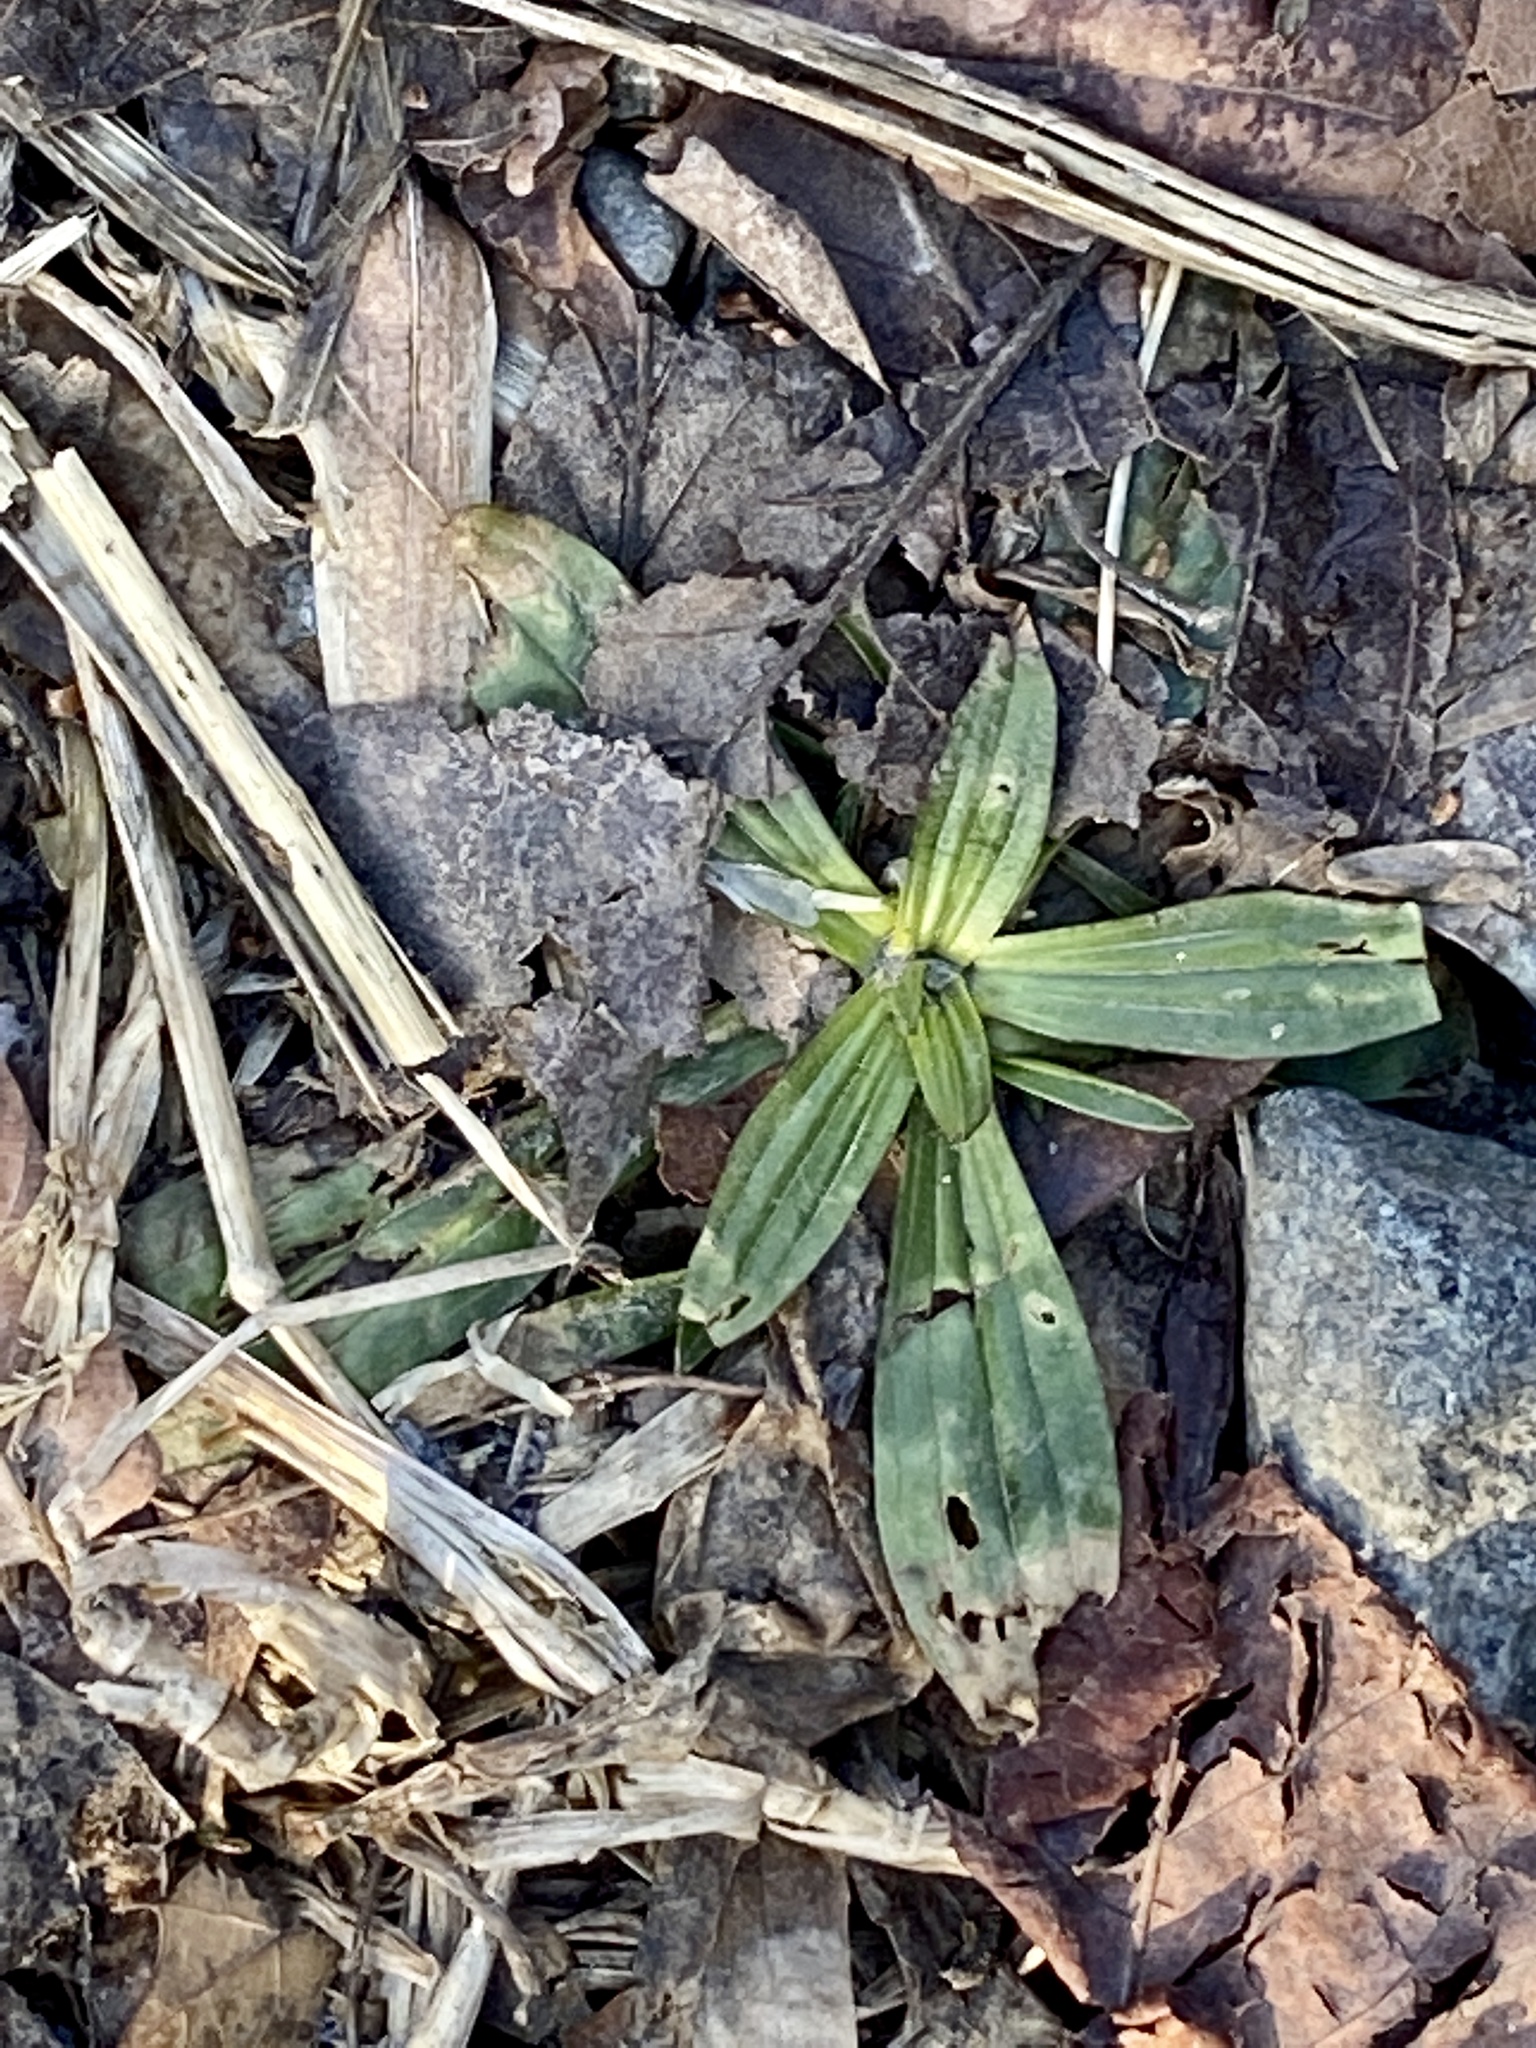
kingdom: Plantae
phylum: Tracheophyta
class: Magnoliopsida
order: Lamiales
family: Plantaginaceae
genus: Plantago
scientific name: Plantago lanceolata
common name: Ribwort plantain
